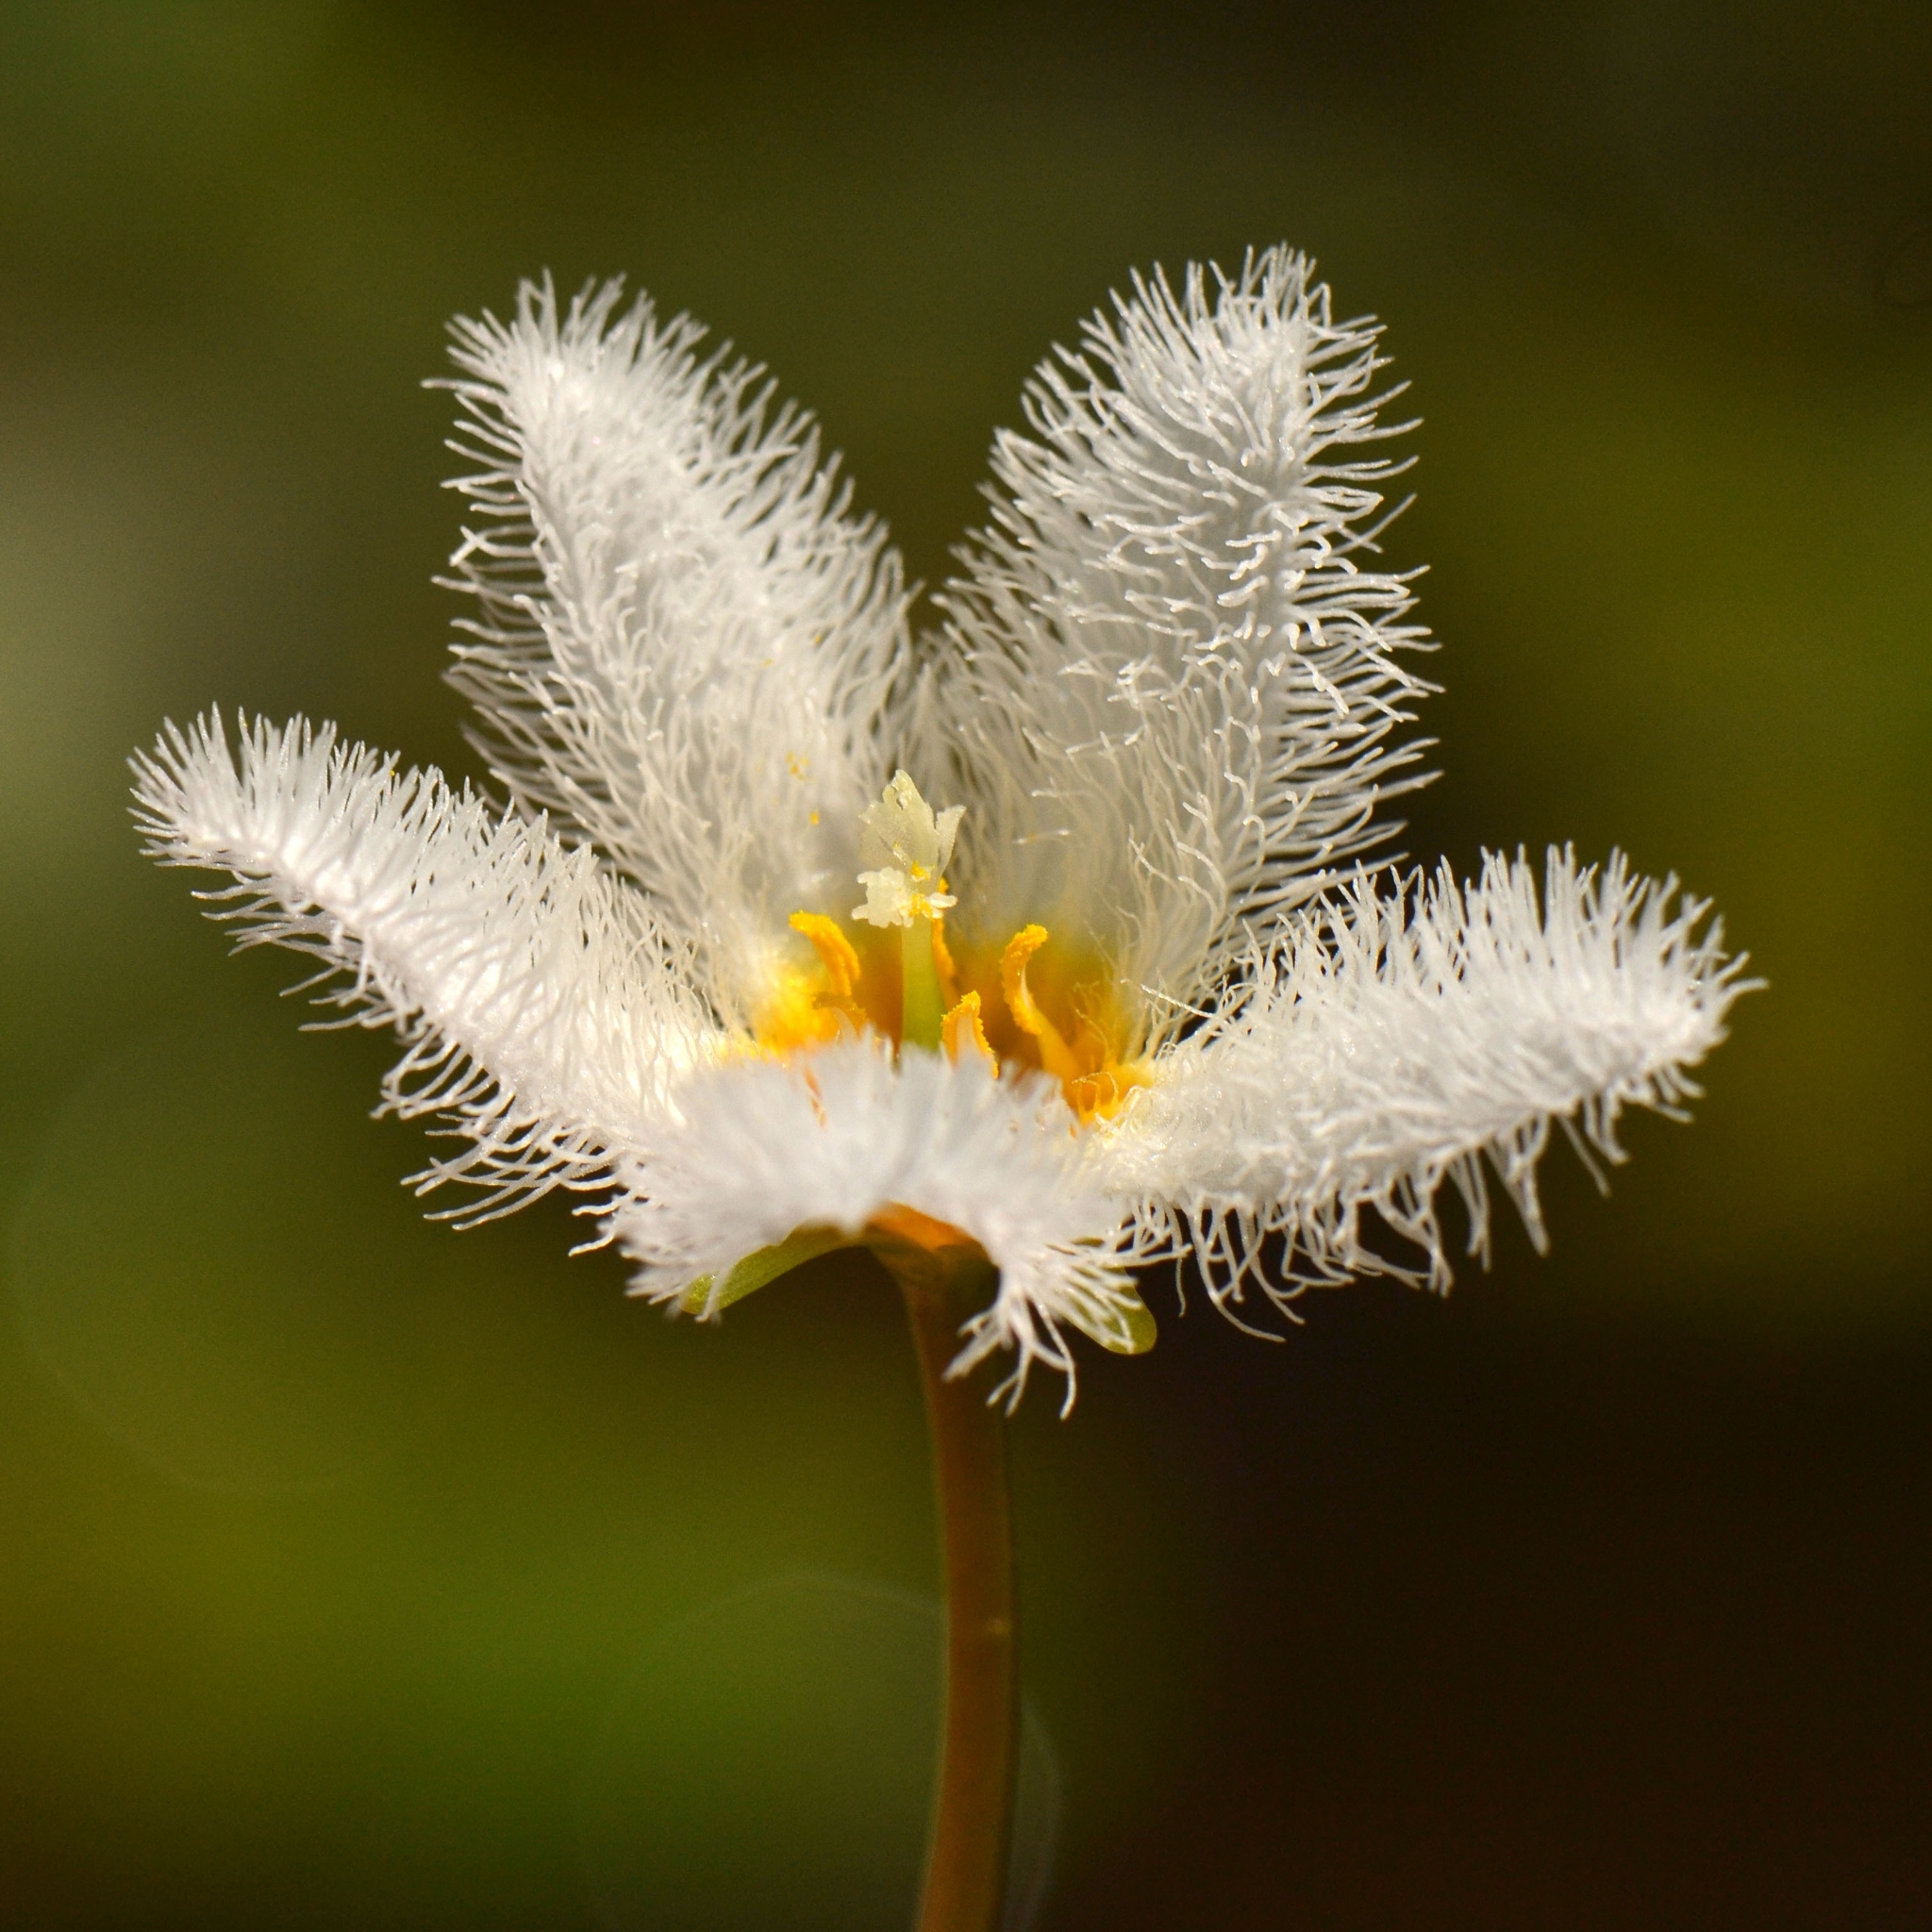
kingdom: Plantae
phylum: Tracheophyta
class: Magnoliopsida
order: Asterales
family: Menyanthaceae
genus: Nymphoides
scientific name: Nymphoides indica
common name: Water-snowflake
